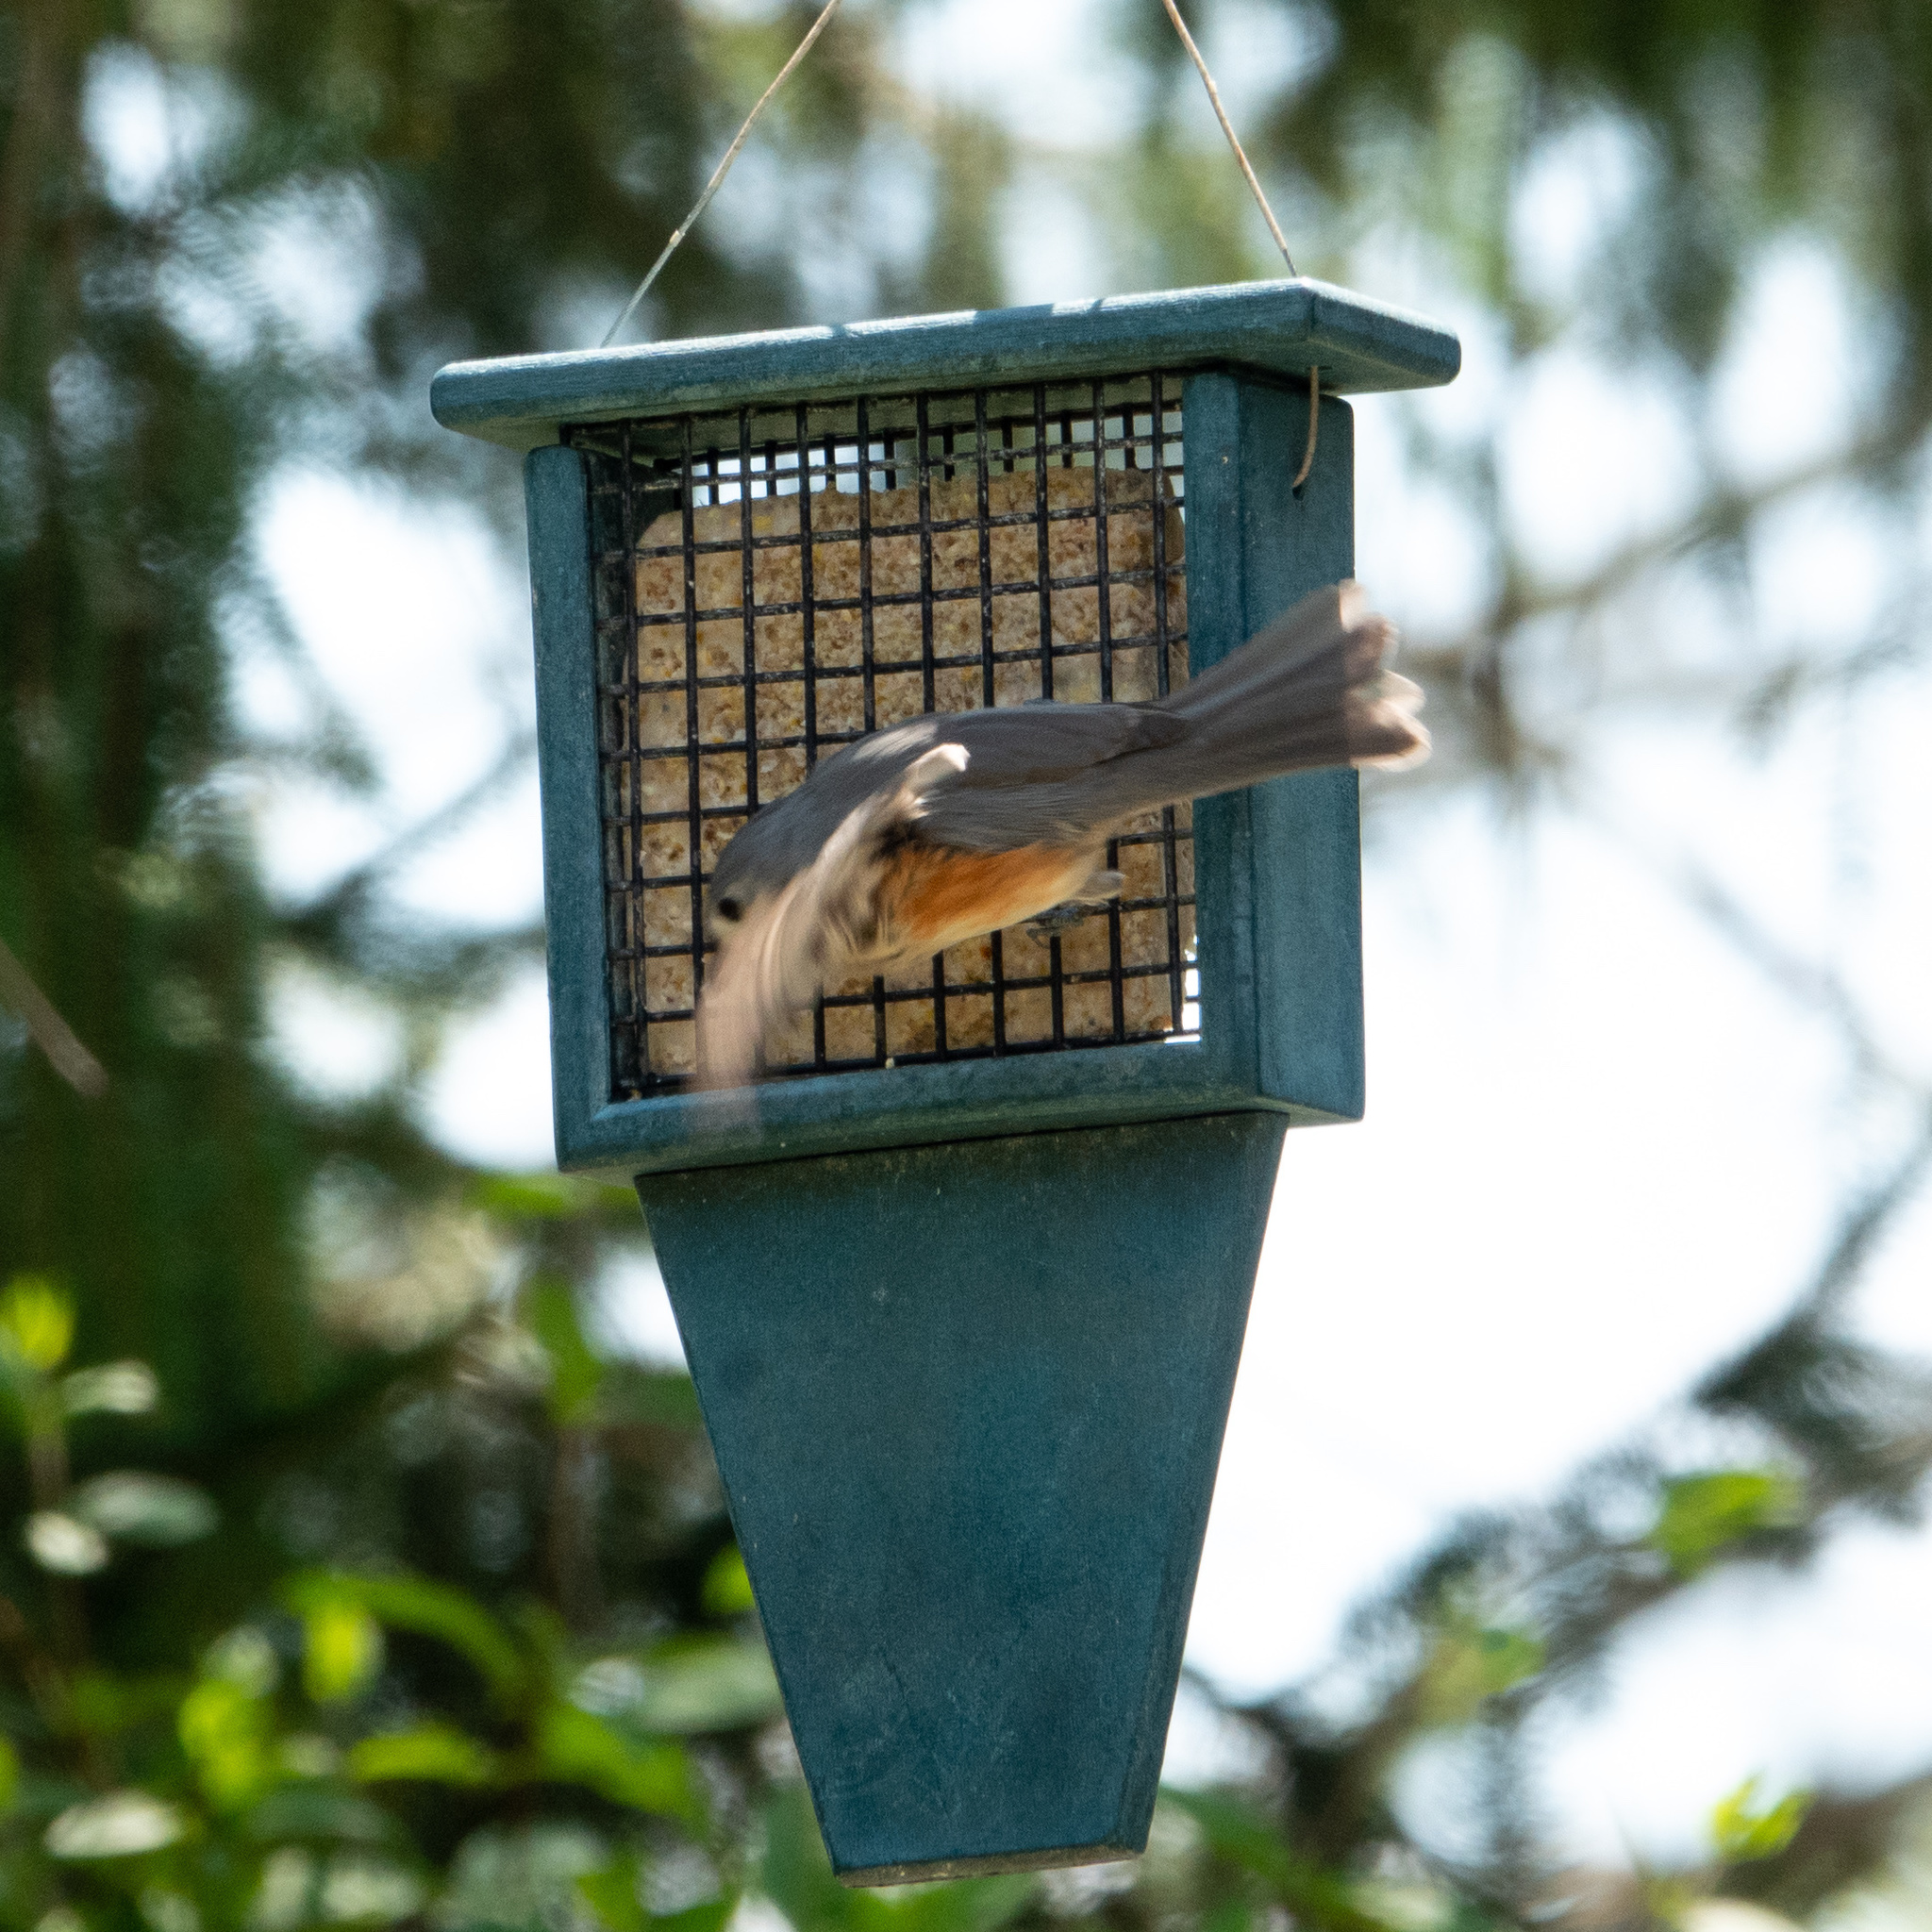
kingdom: Animalia
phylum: Chordata
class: Aves
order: Passeriformes
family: Paridae
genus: Baeolophus
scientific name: Baeolophus bicolor
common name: Tufted titmouse
